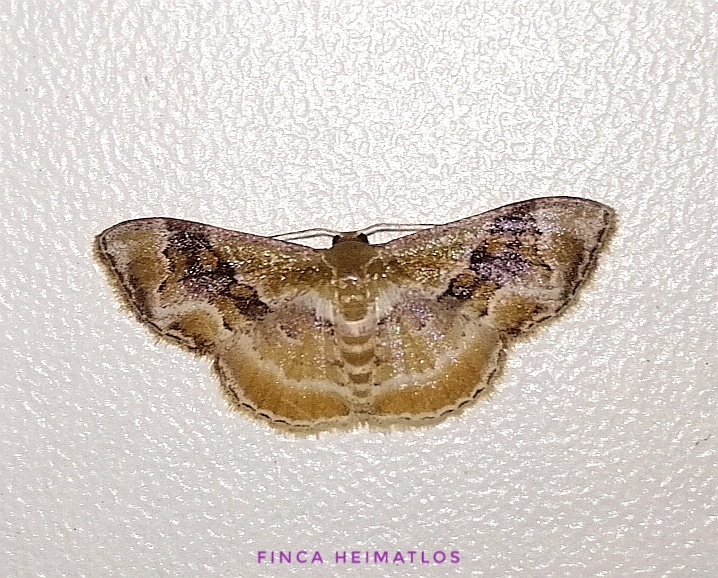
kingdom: Animalia
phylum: Arthropoda
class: Insecta
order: Lepidoptera
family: Geometridae
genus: Leptostales
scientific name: Leptostales adela
